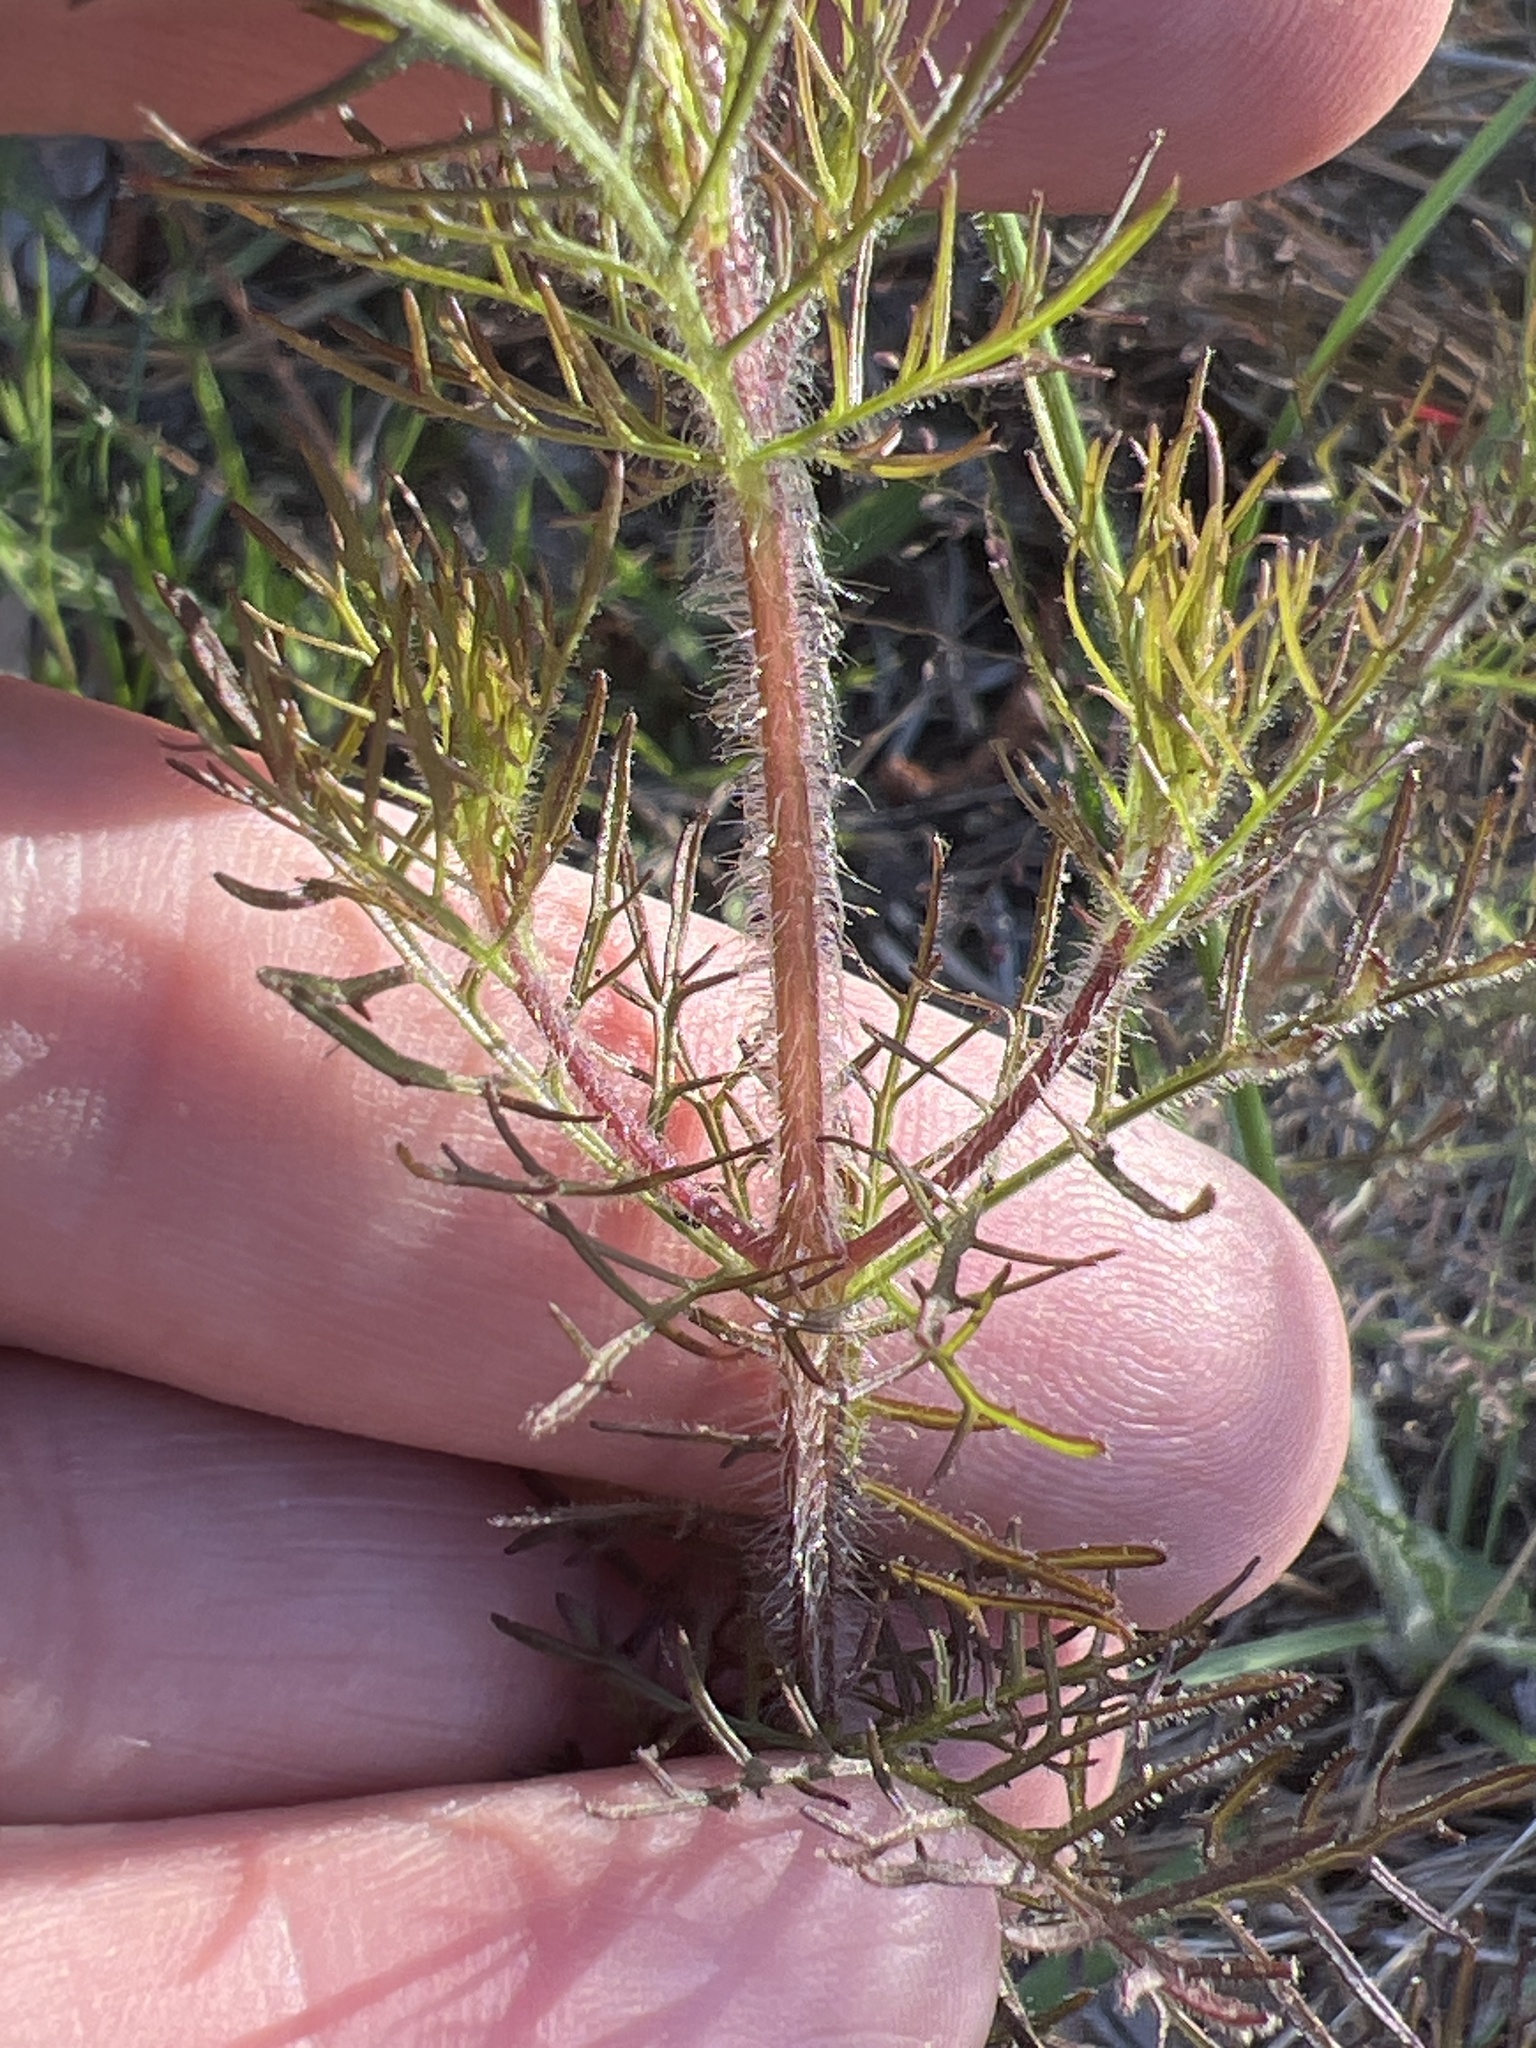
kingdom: Plantae
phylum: Tracheophyta
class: Magnoliopsida
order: Lamiales
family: Orobanchaceae
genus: Seymeria
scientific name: Seymeria cassioides
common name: Yaupon black-senna
